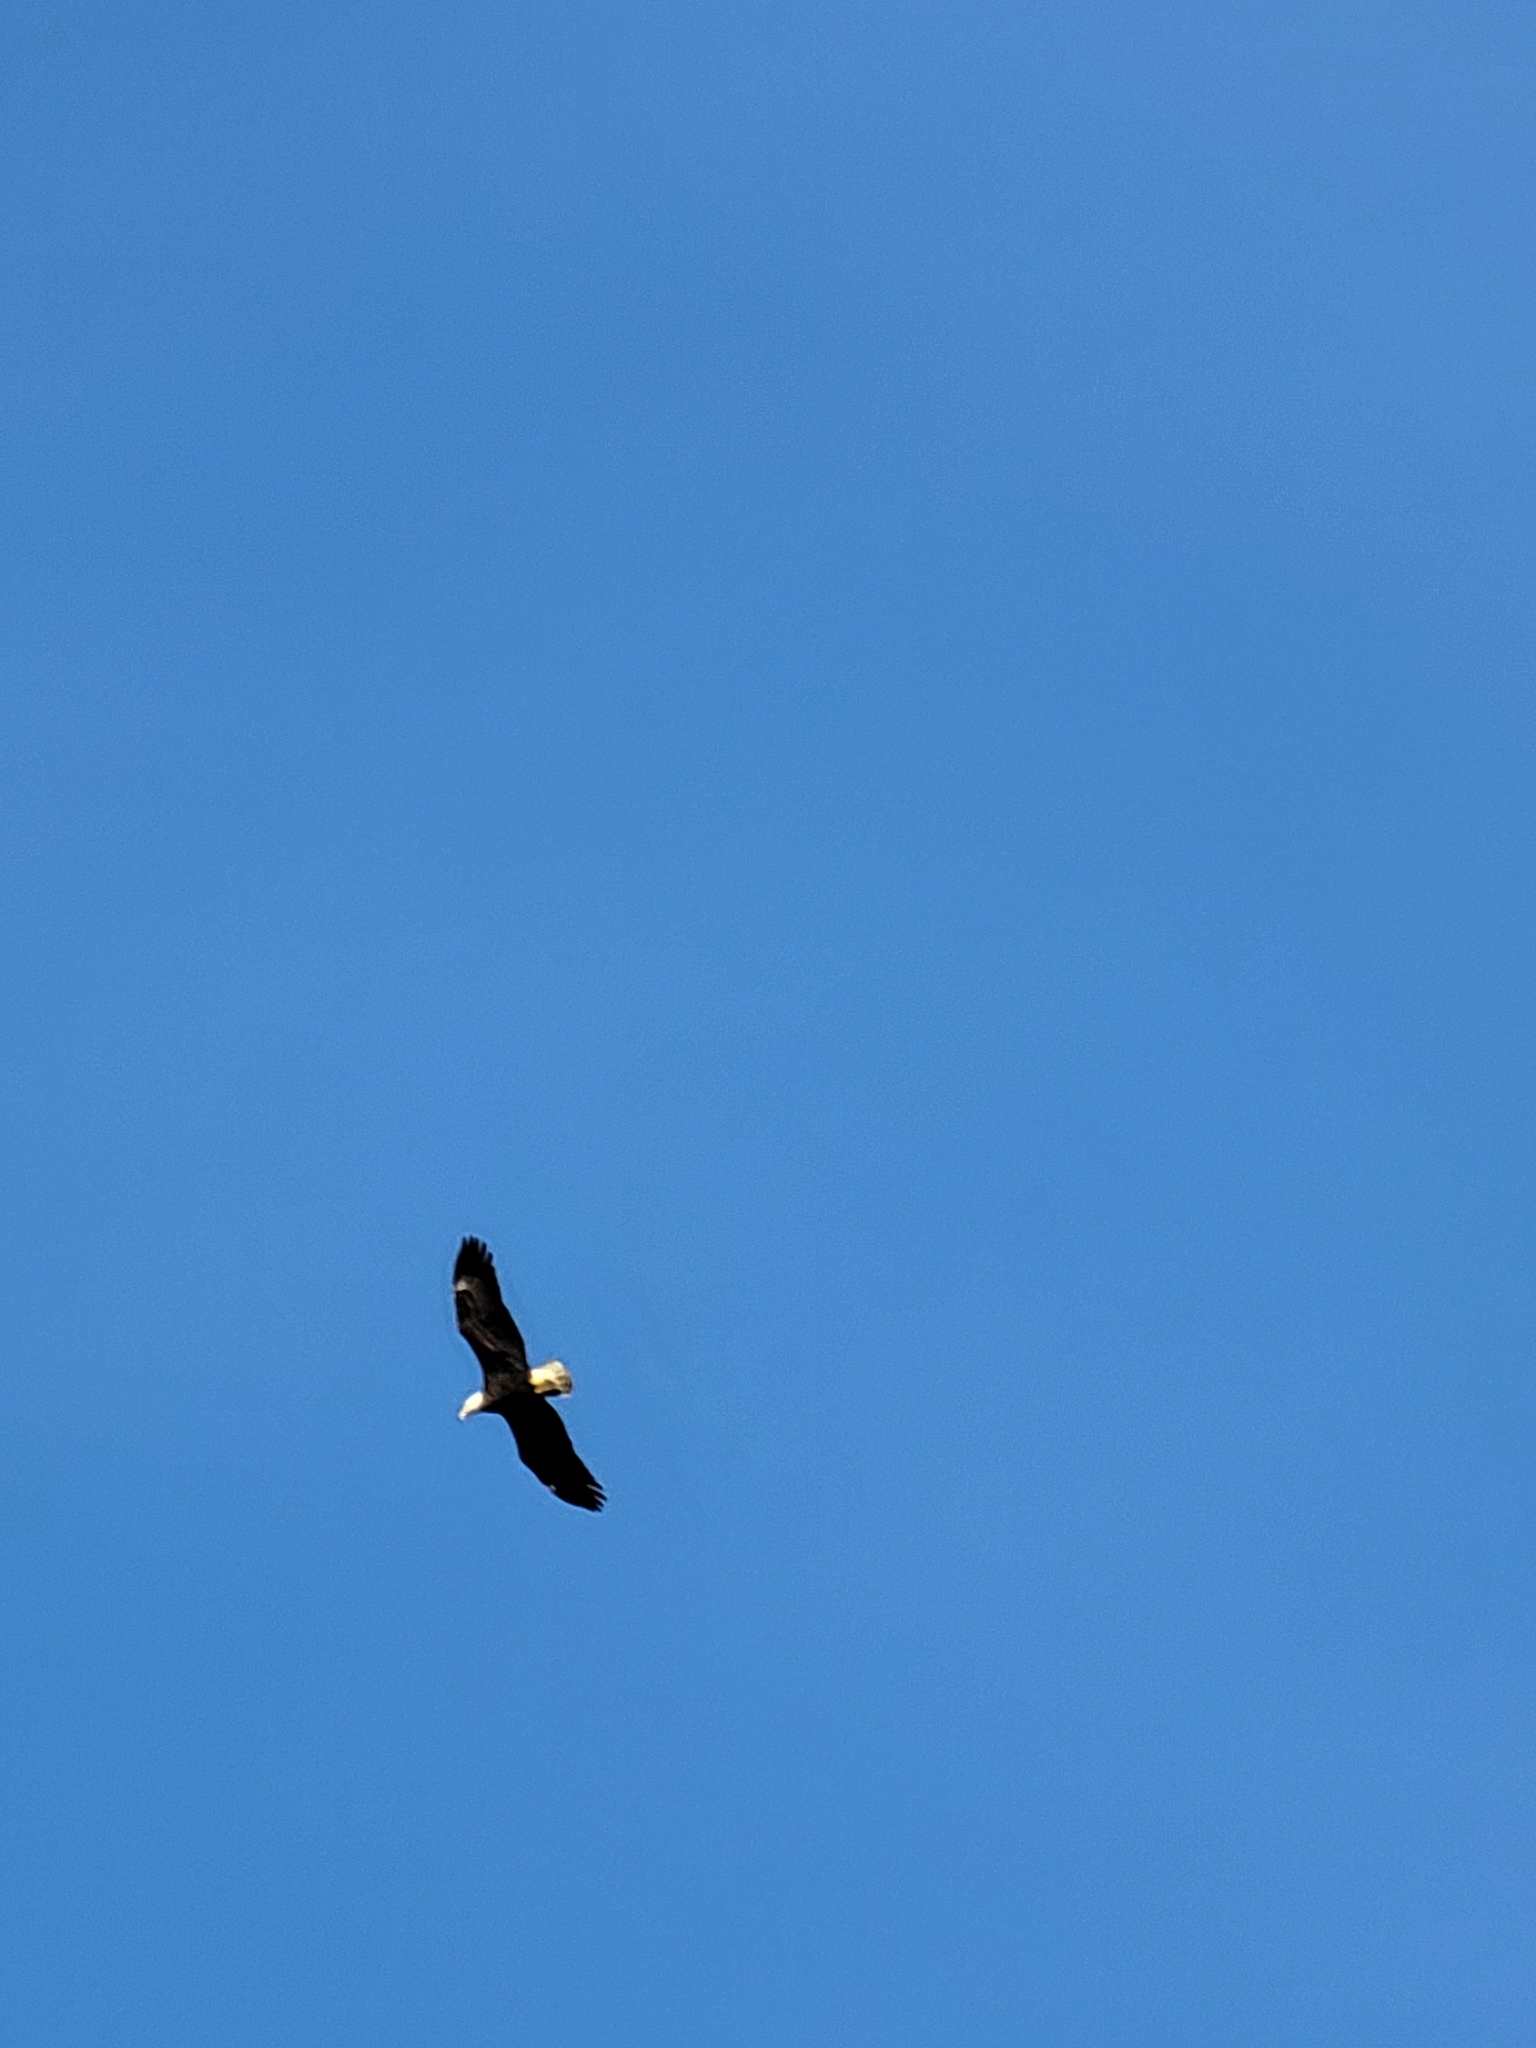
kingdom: Animalia
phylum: Chordata
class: Aves
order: Accipitriformes
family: Accipitridae
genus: Haliaeetus
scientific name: Haliaeetus leucocephalus
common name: Bald eagle
